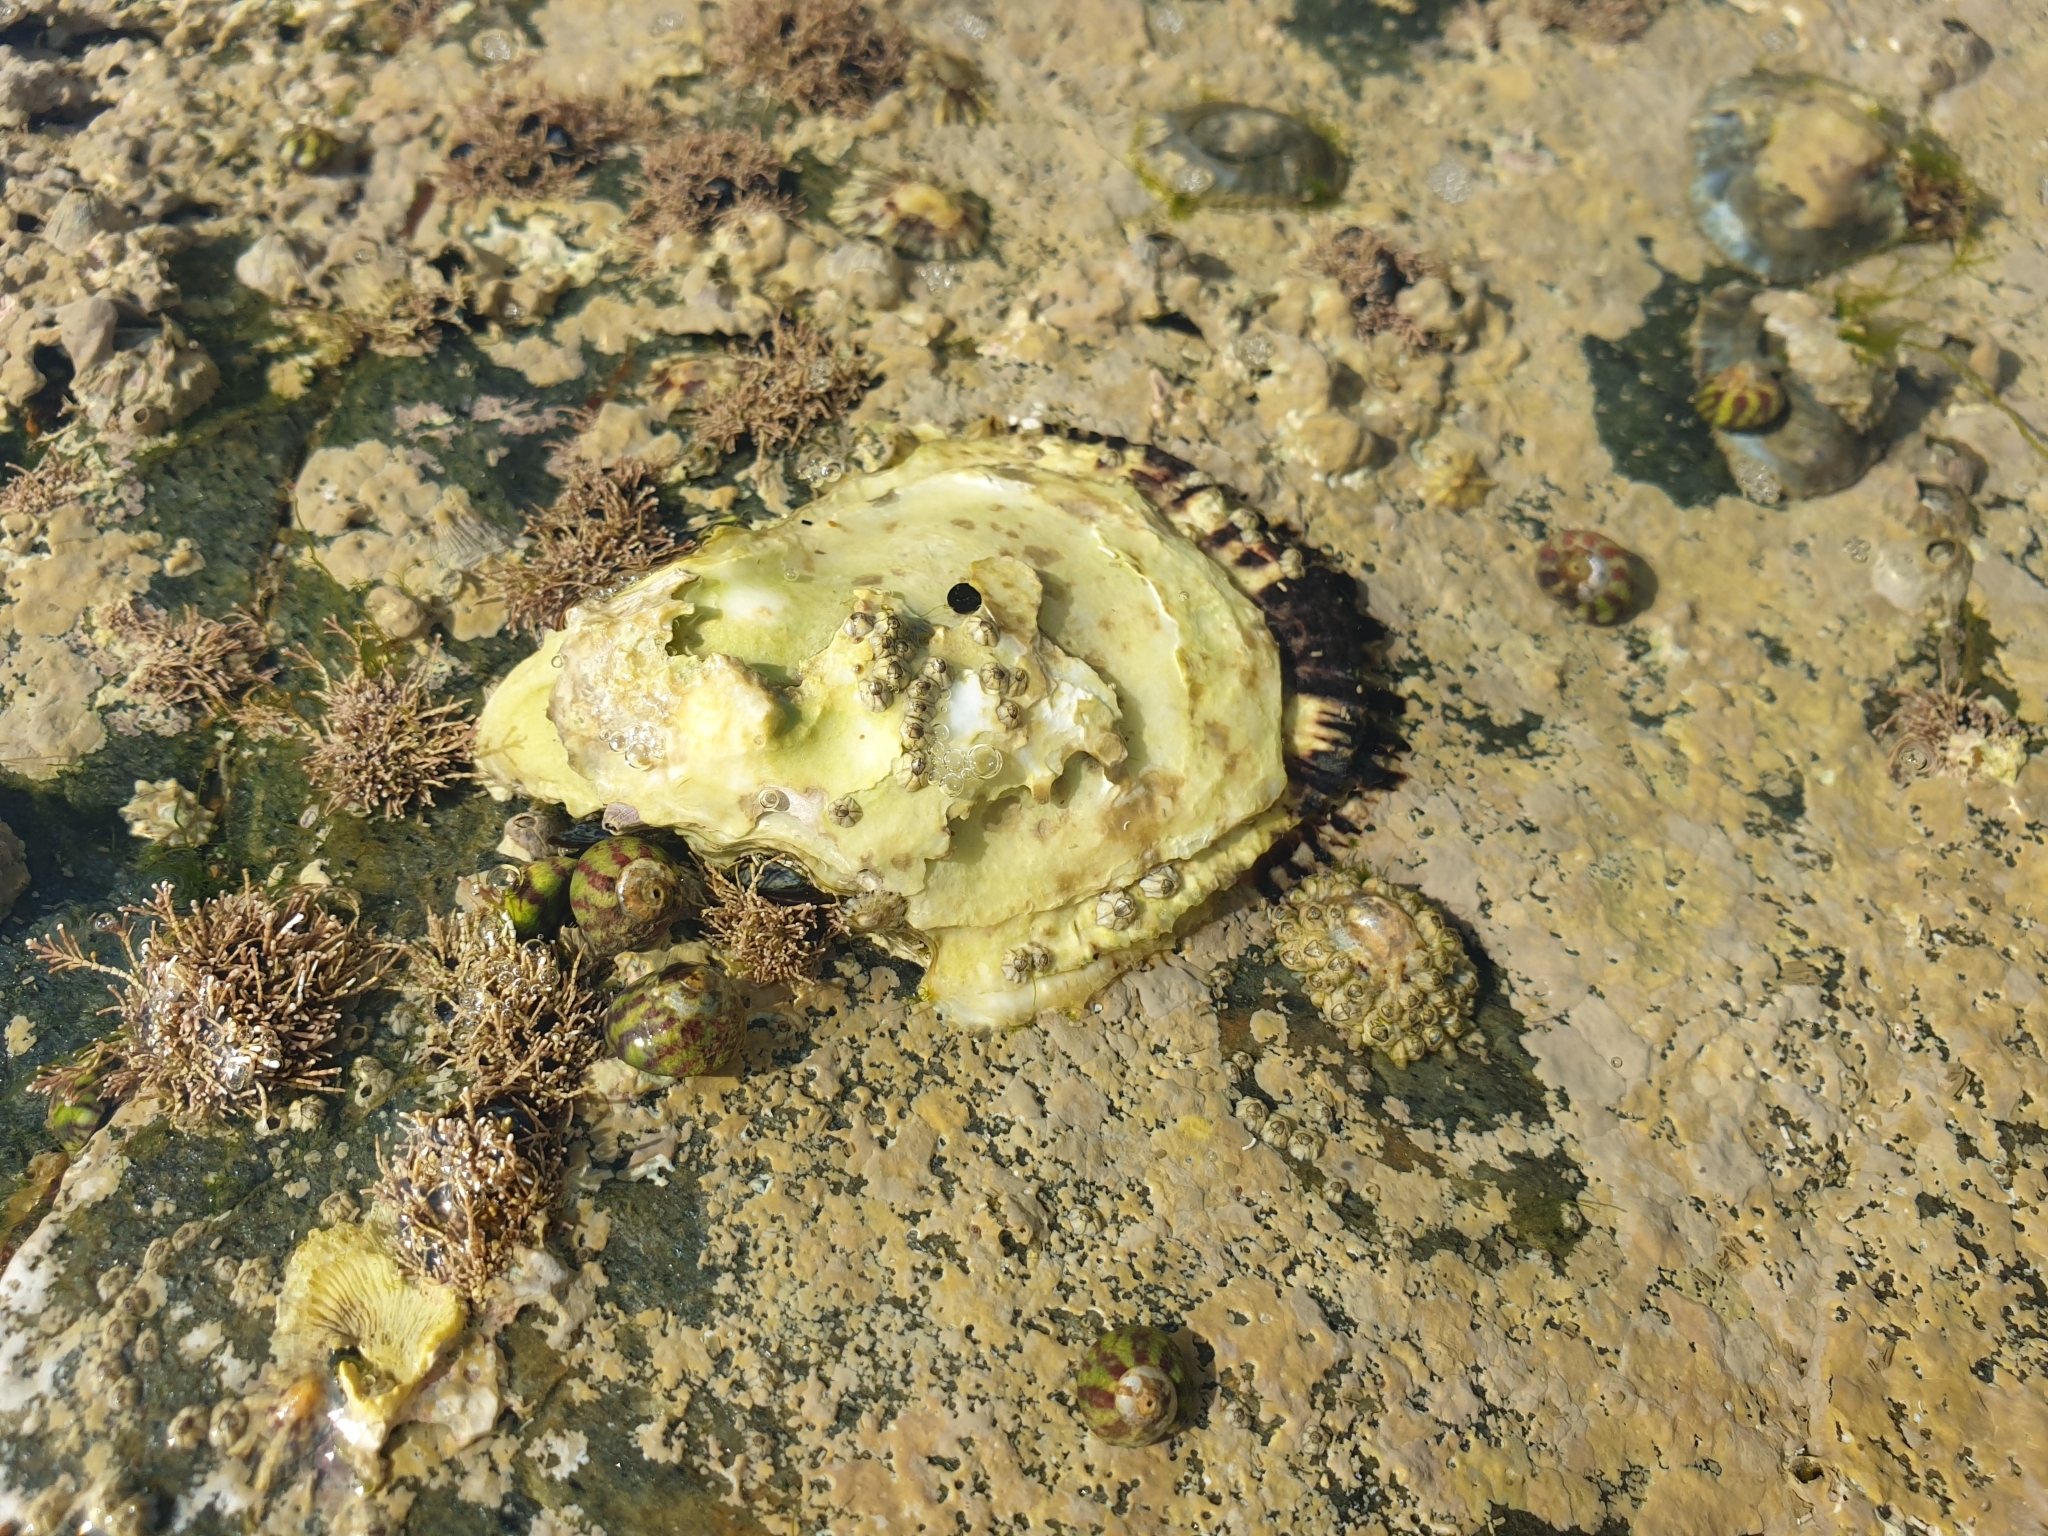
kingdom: Animalia
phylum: Mollusca
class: Bivalvia
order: Ostreida
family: Ostreidae
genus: Magallana
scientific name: Magallana gigas
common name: Pacific oyster
